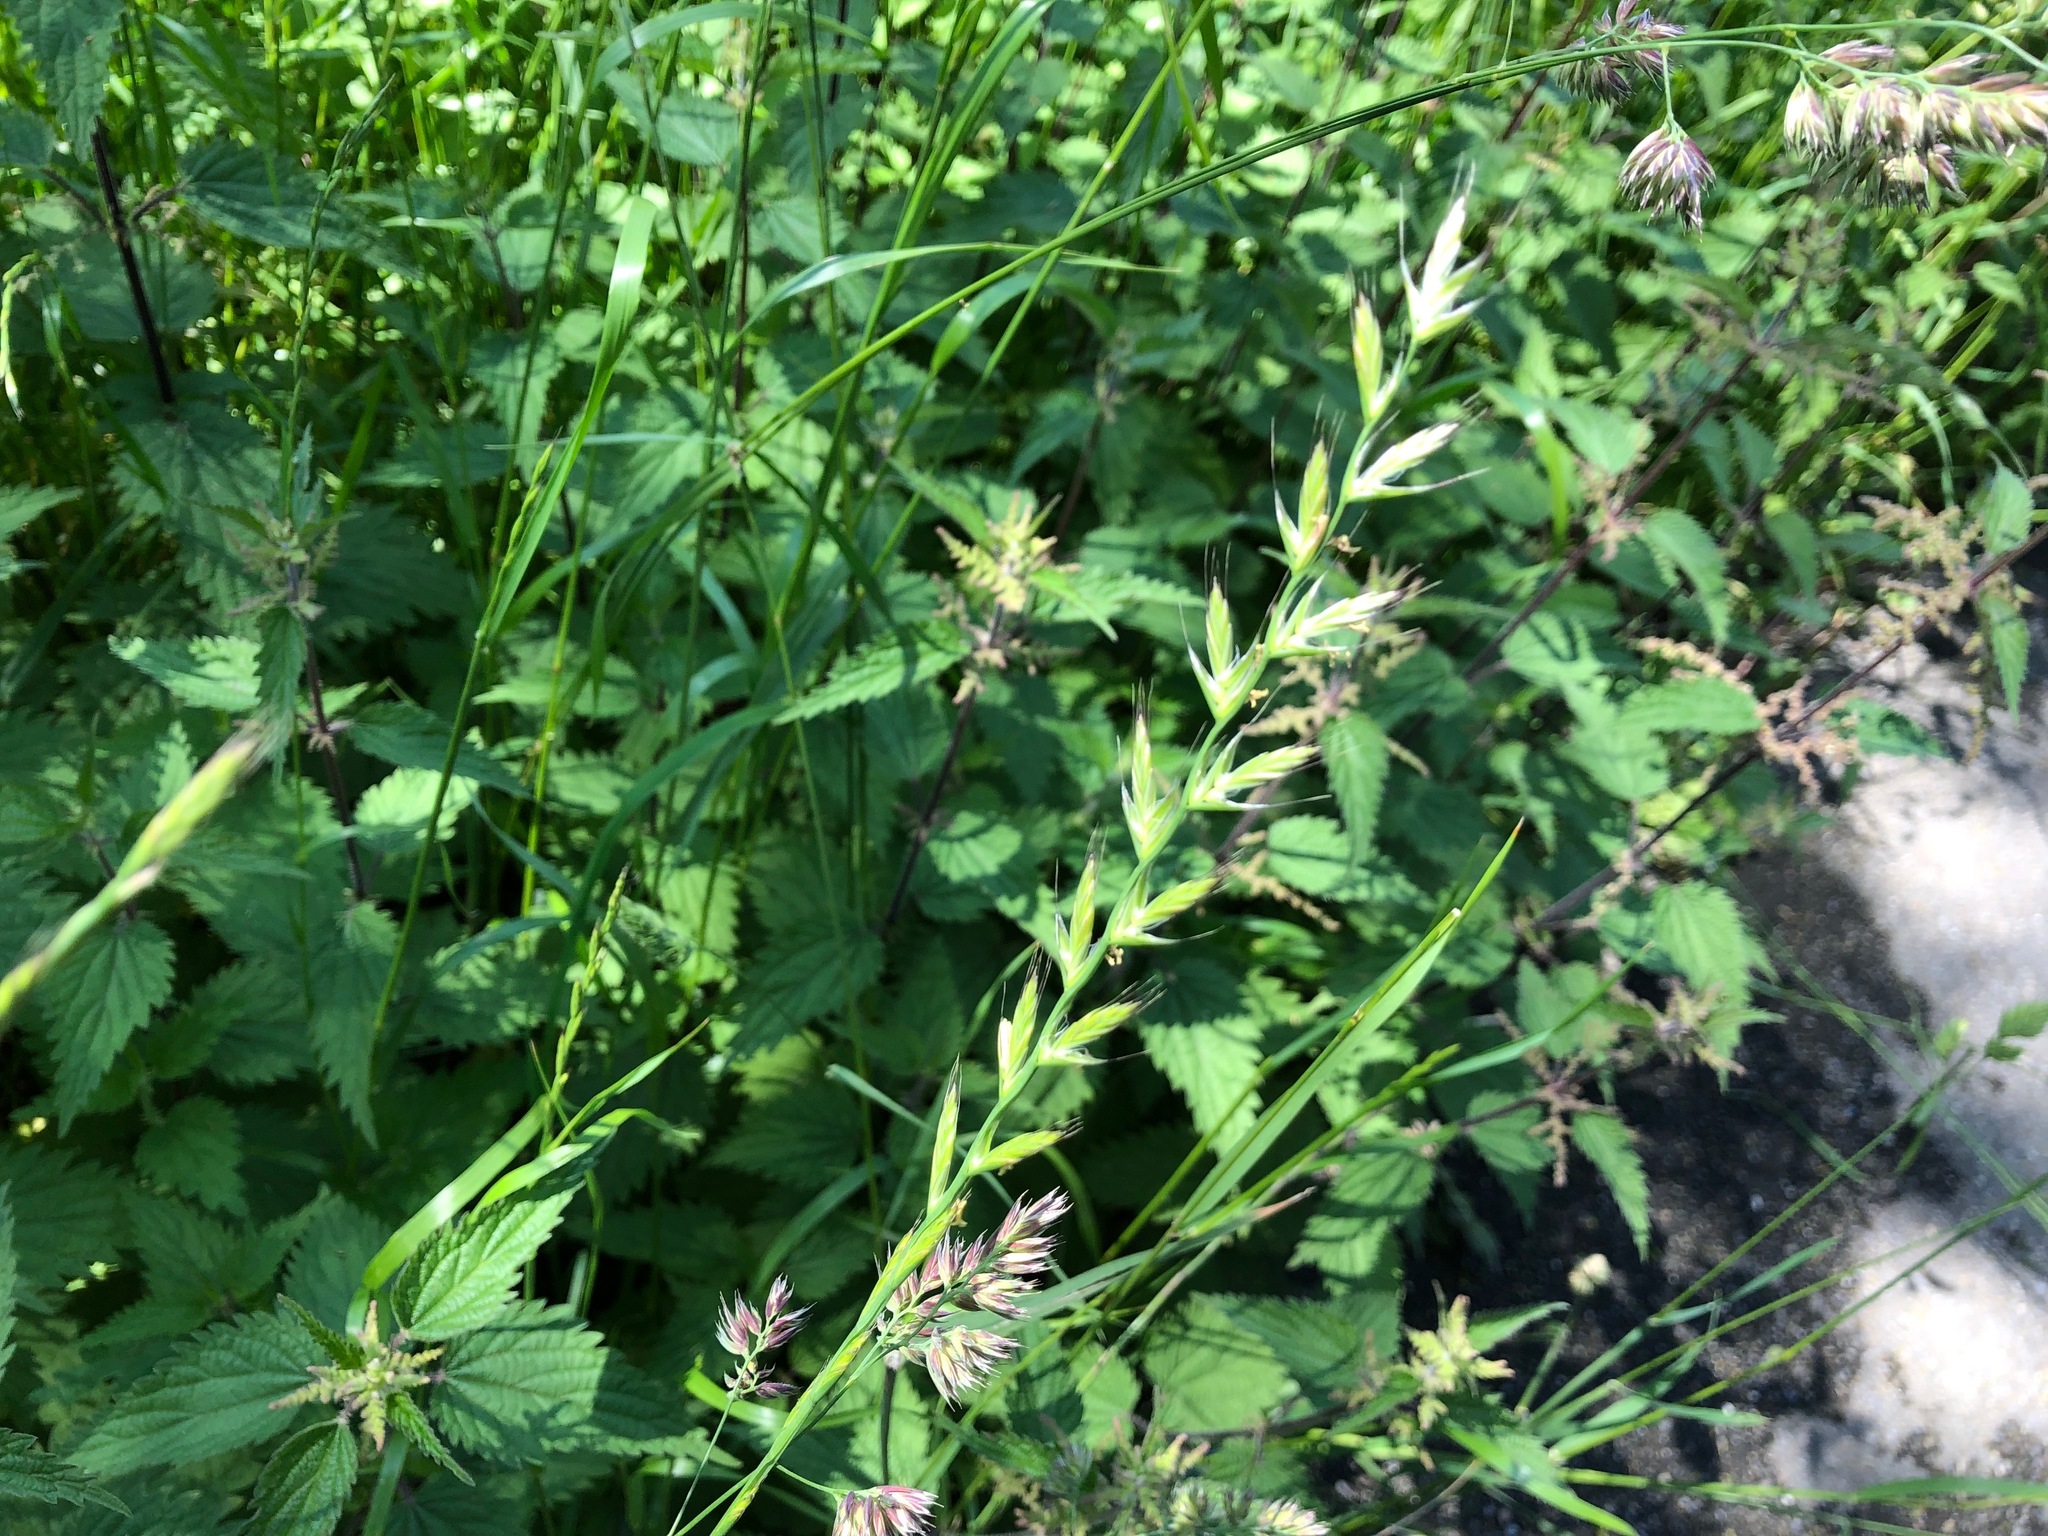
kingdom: Plantae
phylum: Tracheophyta
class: Liliopsida
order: Poales
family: Poaceae
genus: Lolium
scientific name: Lolium multiflorum
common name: Annual ryegrass
